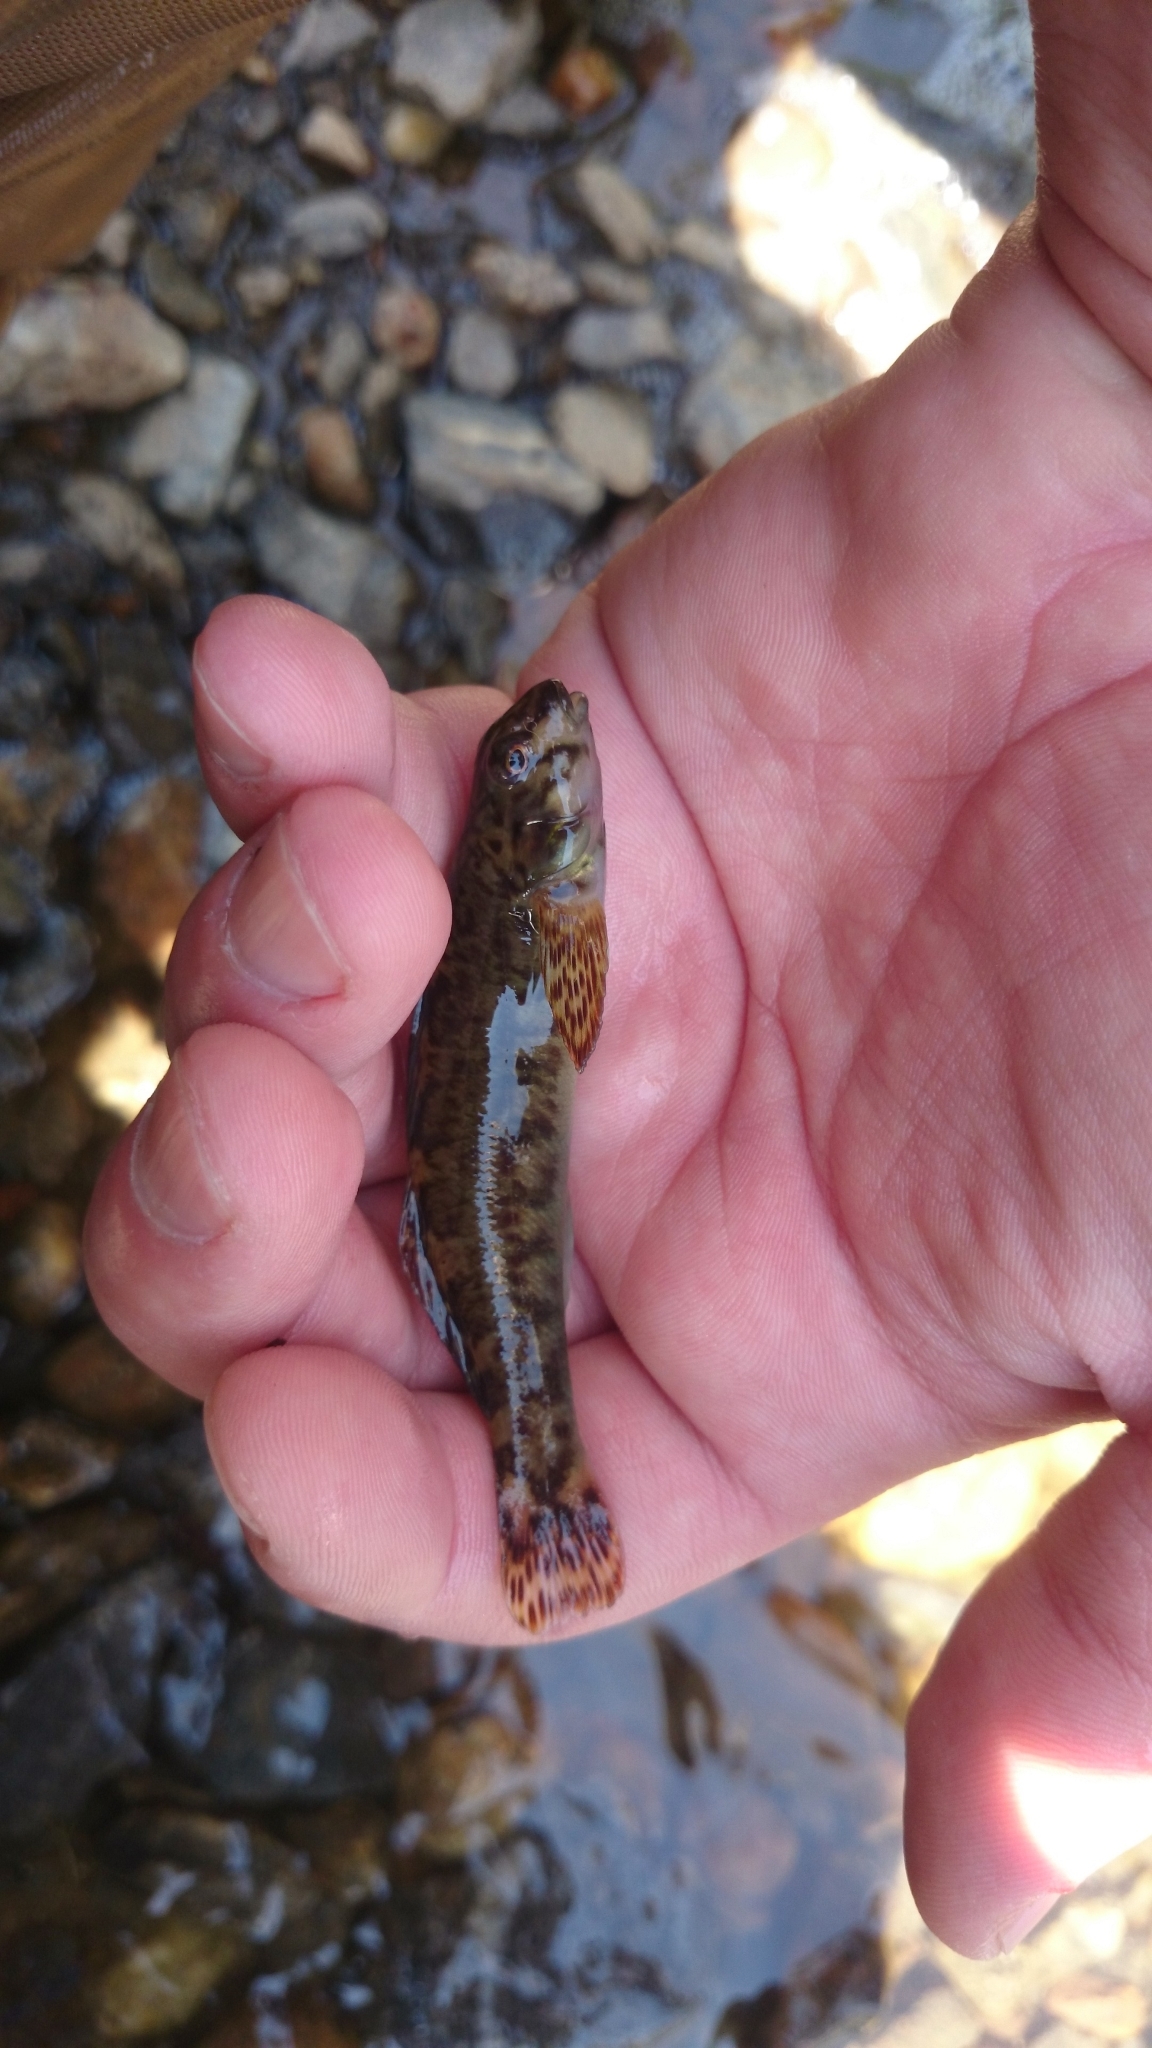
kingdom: Animalia
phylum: Chordata
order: Perciformes
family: Percidae
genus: Etheostoma
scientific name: Etheostoma gutselli
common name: Tuckasegee darter
